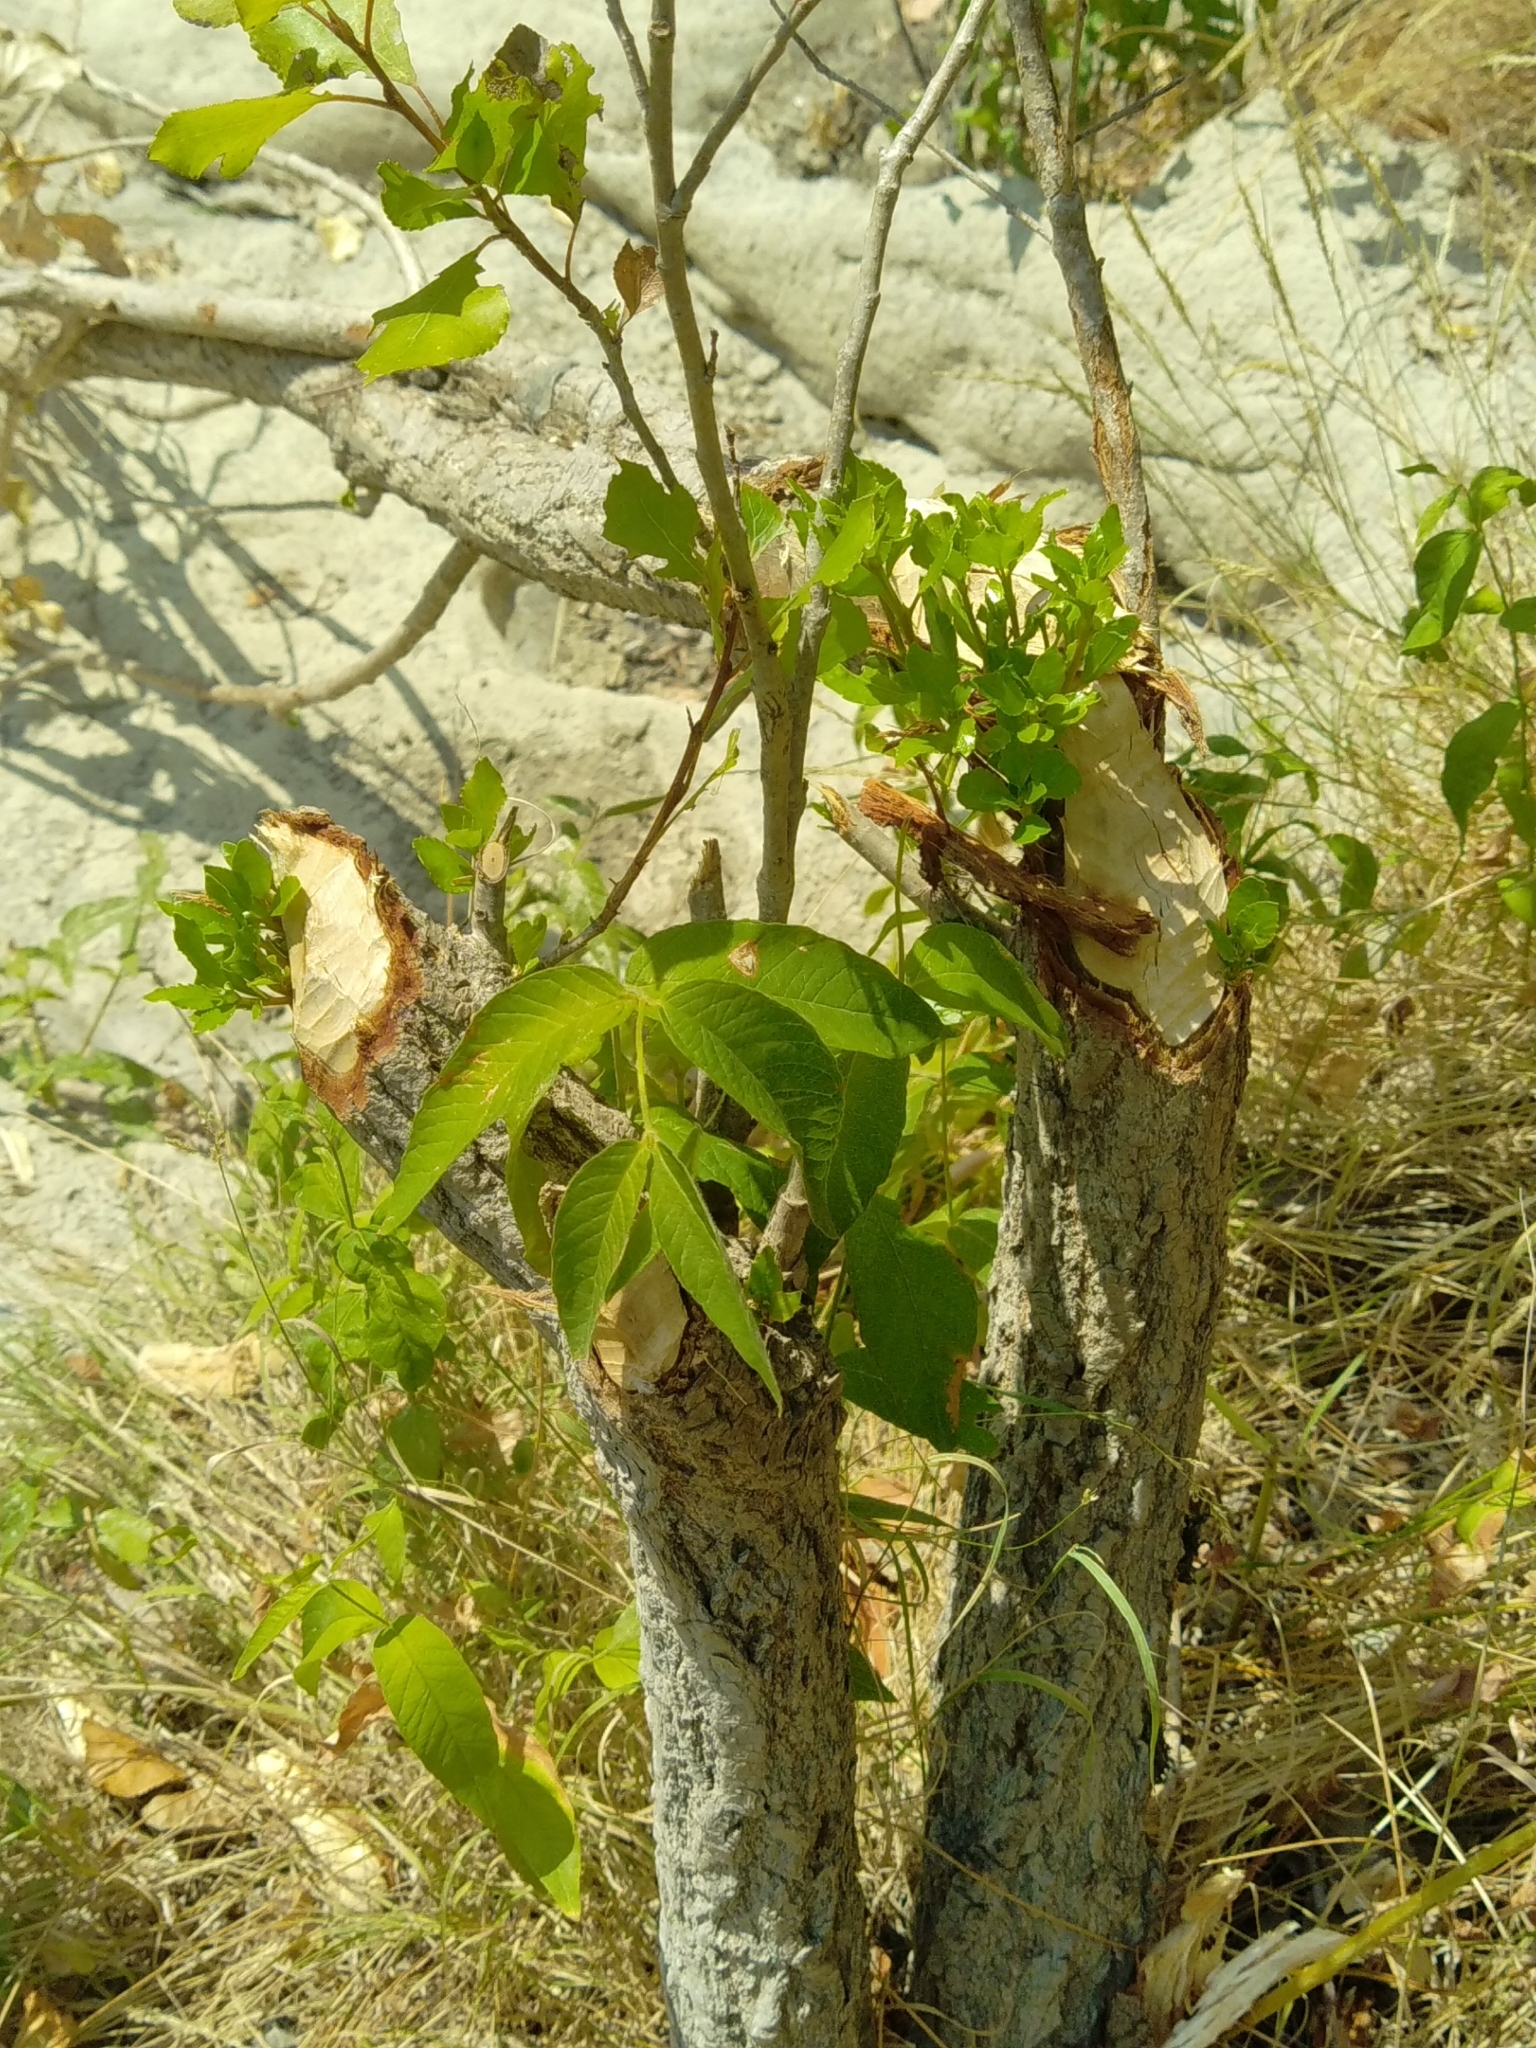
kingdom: Animalia
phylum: Chordata
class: Mammalia
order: Rodentia
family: Castoridae
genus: Castor
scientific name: Castor fiber
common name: Eurasian beaver
